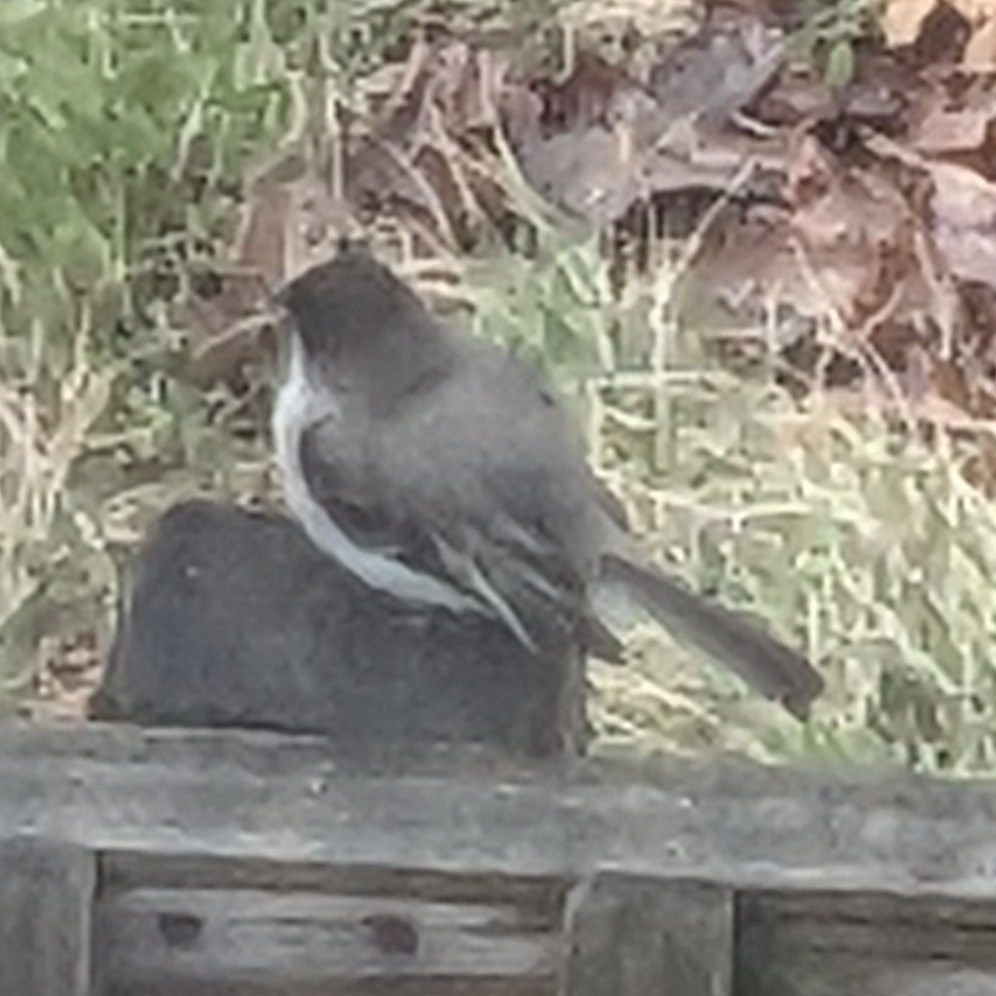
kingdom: Animalia
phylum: Chordata
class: Aves
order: Passeriformes
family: Tyrannidae
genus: Sayornis
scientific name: Sayornis phoebe
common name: Eastern phoebe
